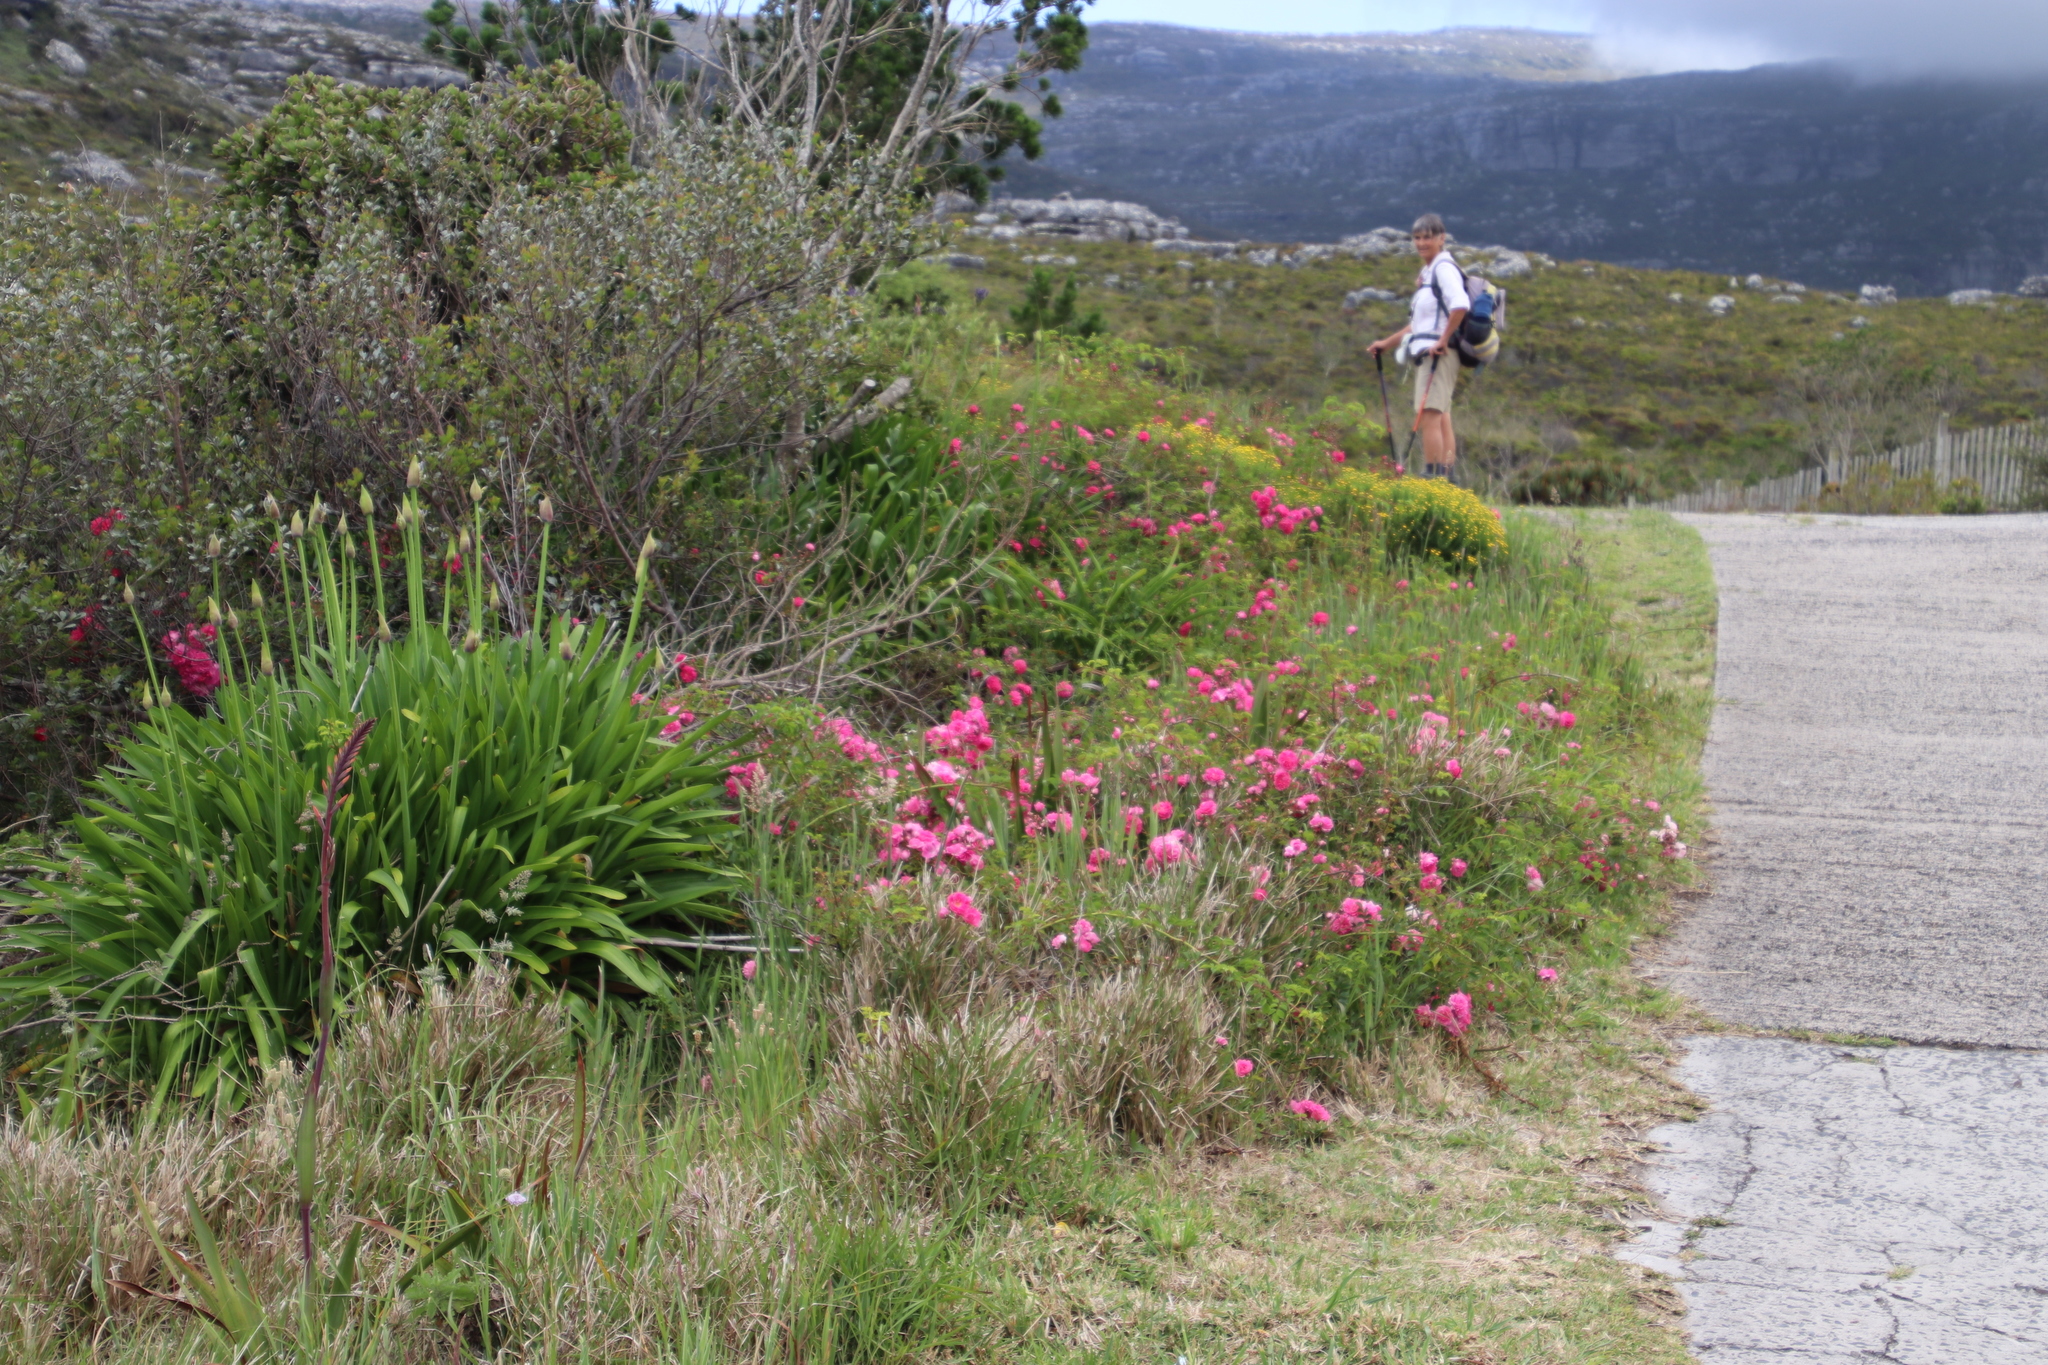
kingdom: Plantae
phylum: Tracheophyta
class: Magnoliopsida
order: Rosales
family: Rosaceae
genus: Rosa
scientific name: Rosa multiflora
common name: Multiflora rose
